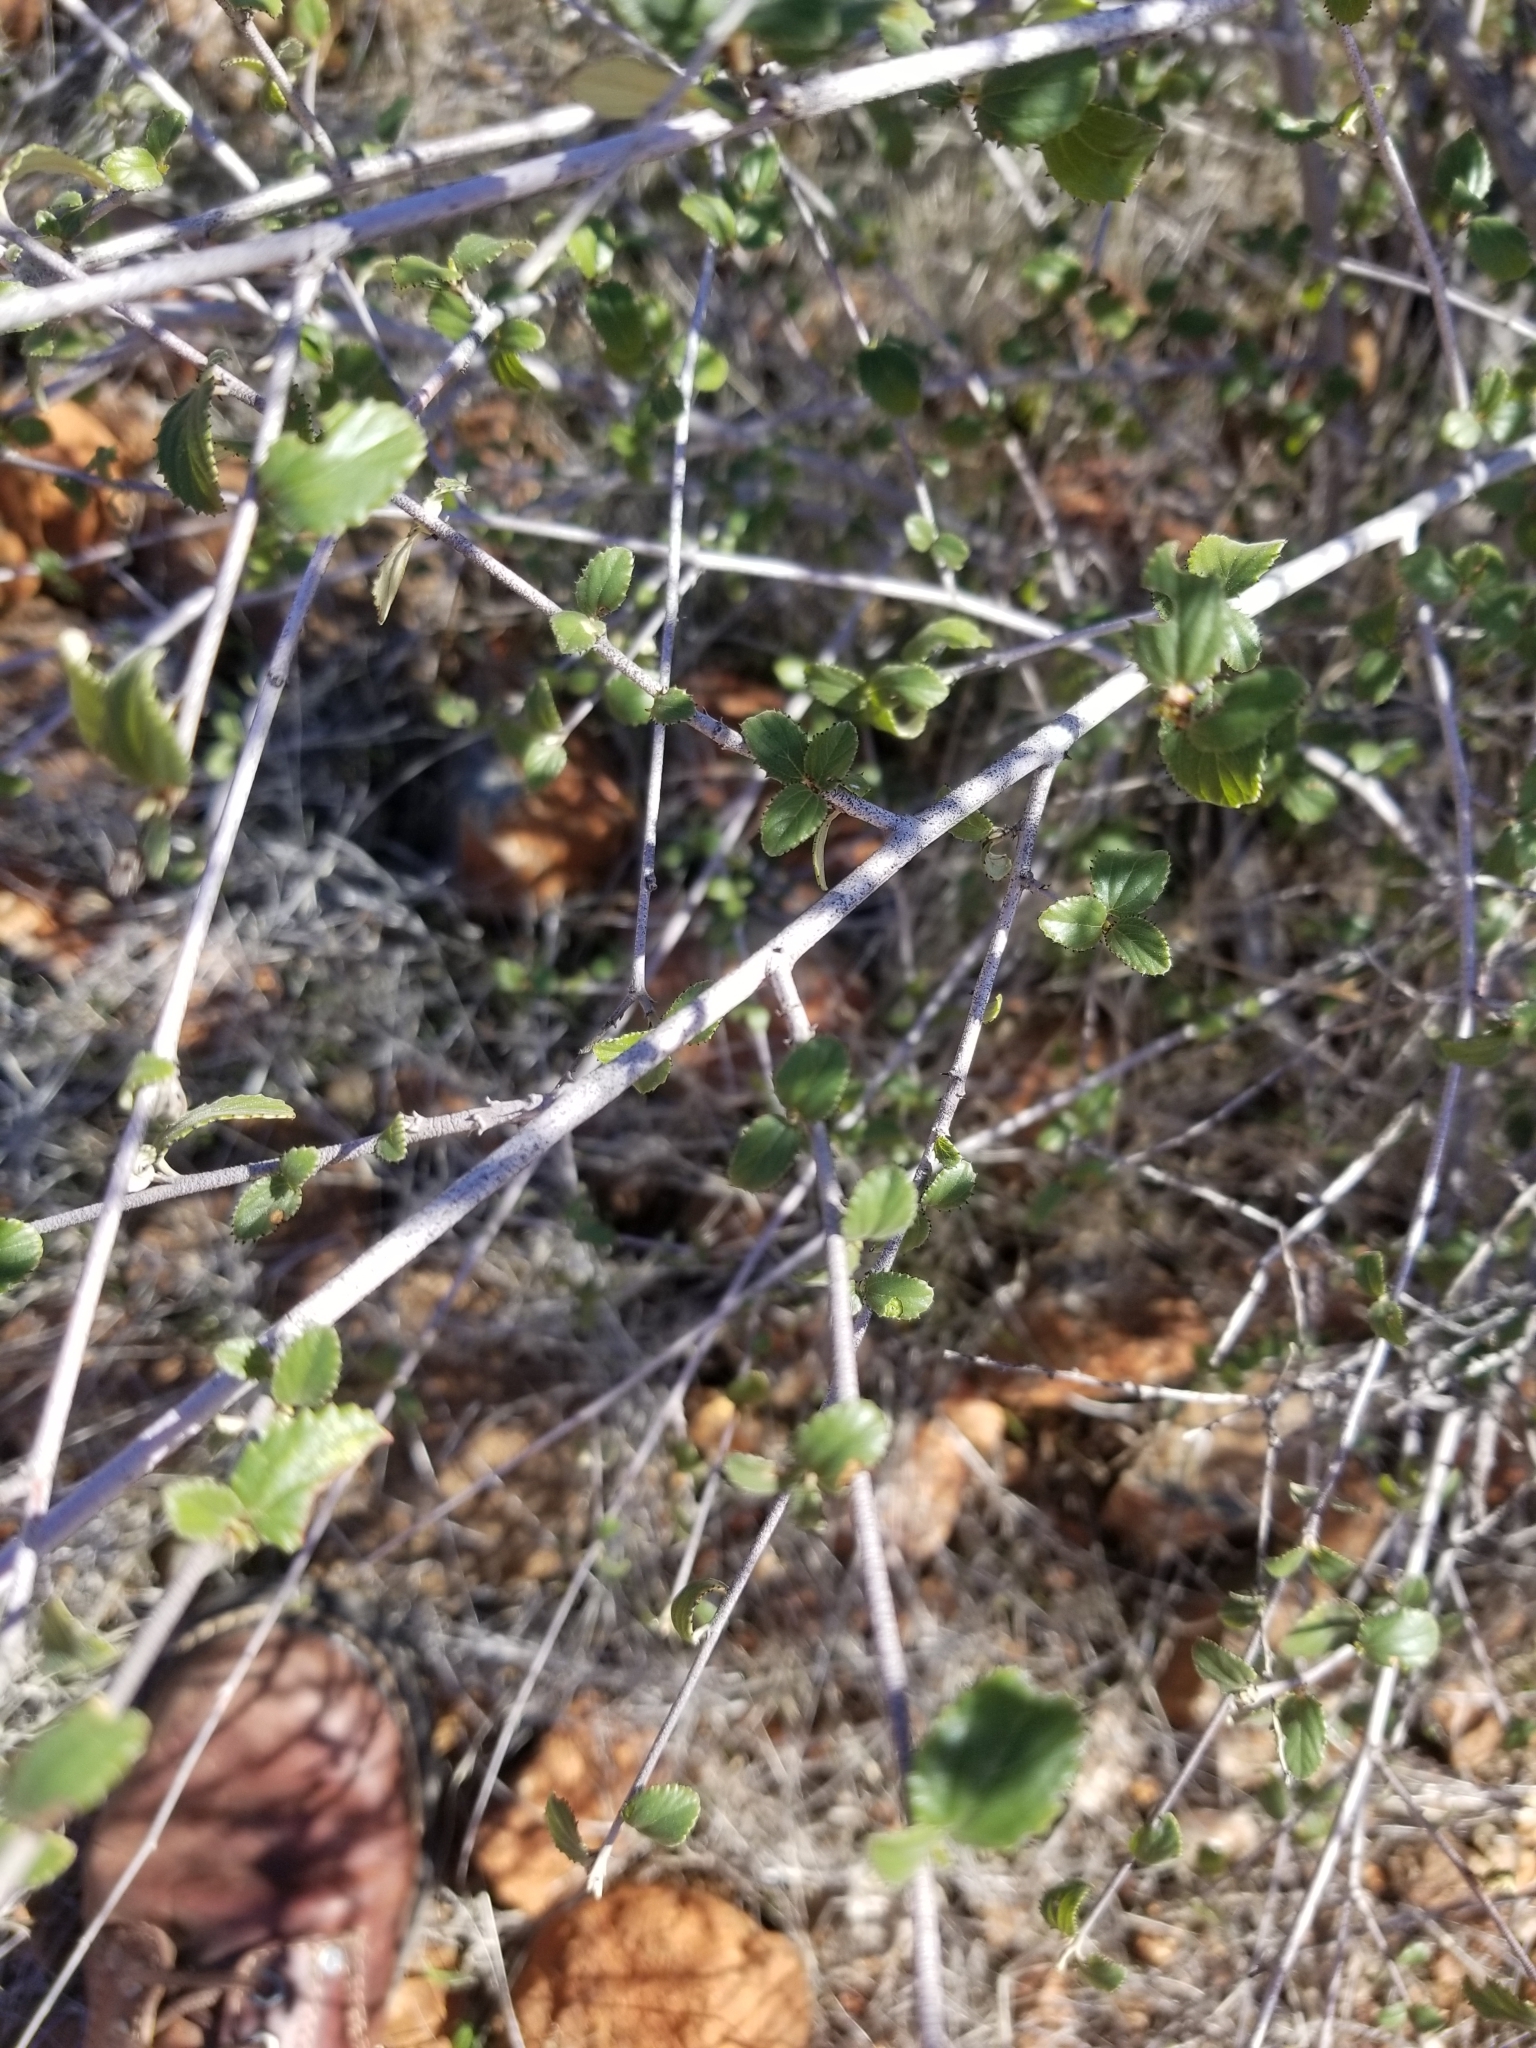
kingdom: Plantae
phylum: Tracheophyta
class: Magnoliopsida
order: Rosales
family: Rhamnaceae
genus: Ceanothus
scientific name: Ceanothus tomentosus
